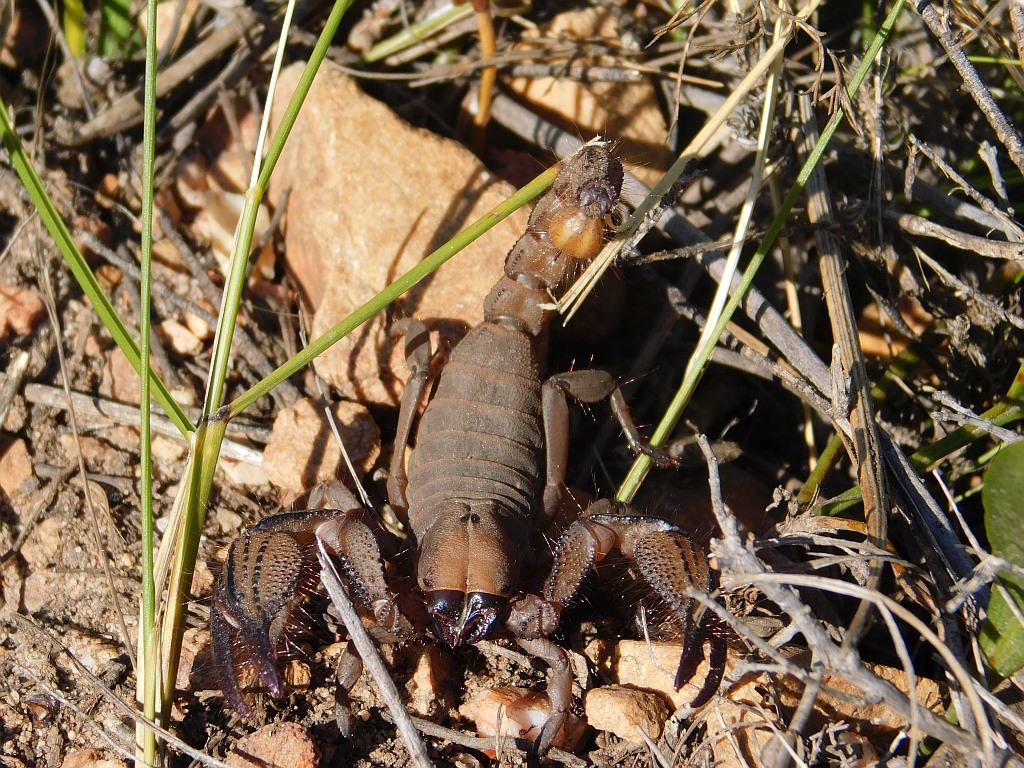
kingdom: Animalia
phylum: Arthropoda
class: Arachnida
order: Scorpiones
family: Scorpionidae
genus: Opistophthalmus
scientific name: Opistophthalmus macer
